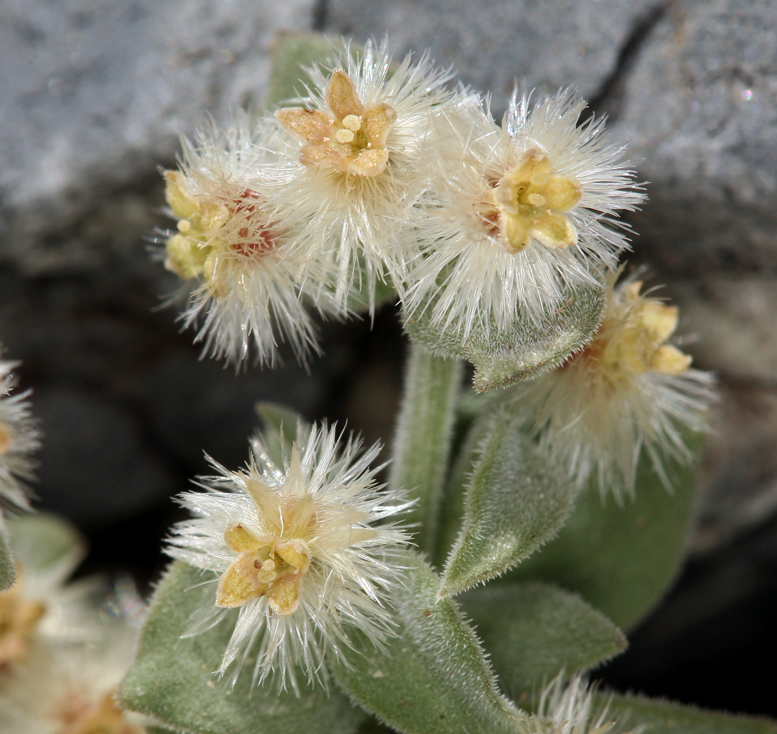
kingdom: Plantae
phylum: Tracheophyta
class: Magnoliopsida
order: Gentianales
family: Rubiaceae
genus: Galium
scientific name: Galium hypotrichium
